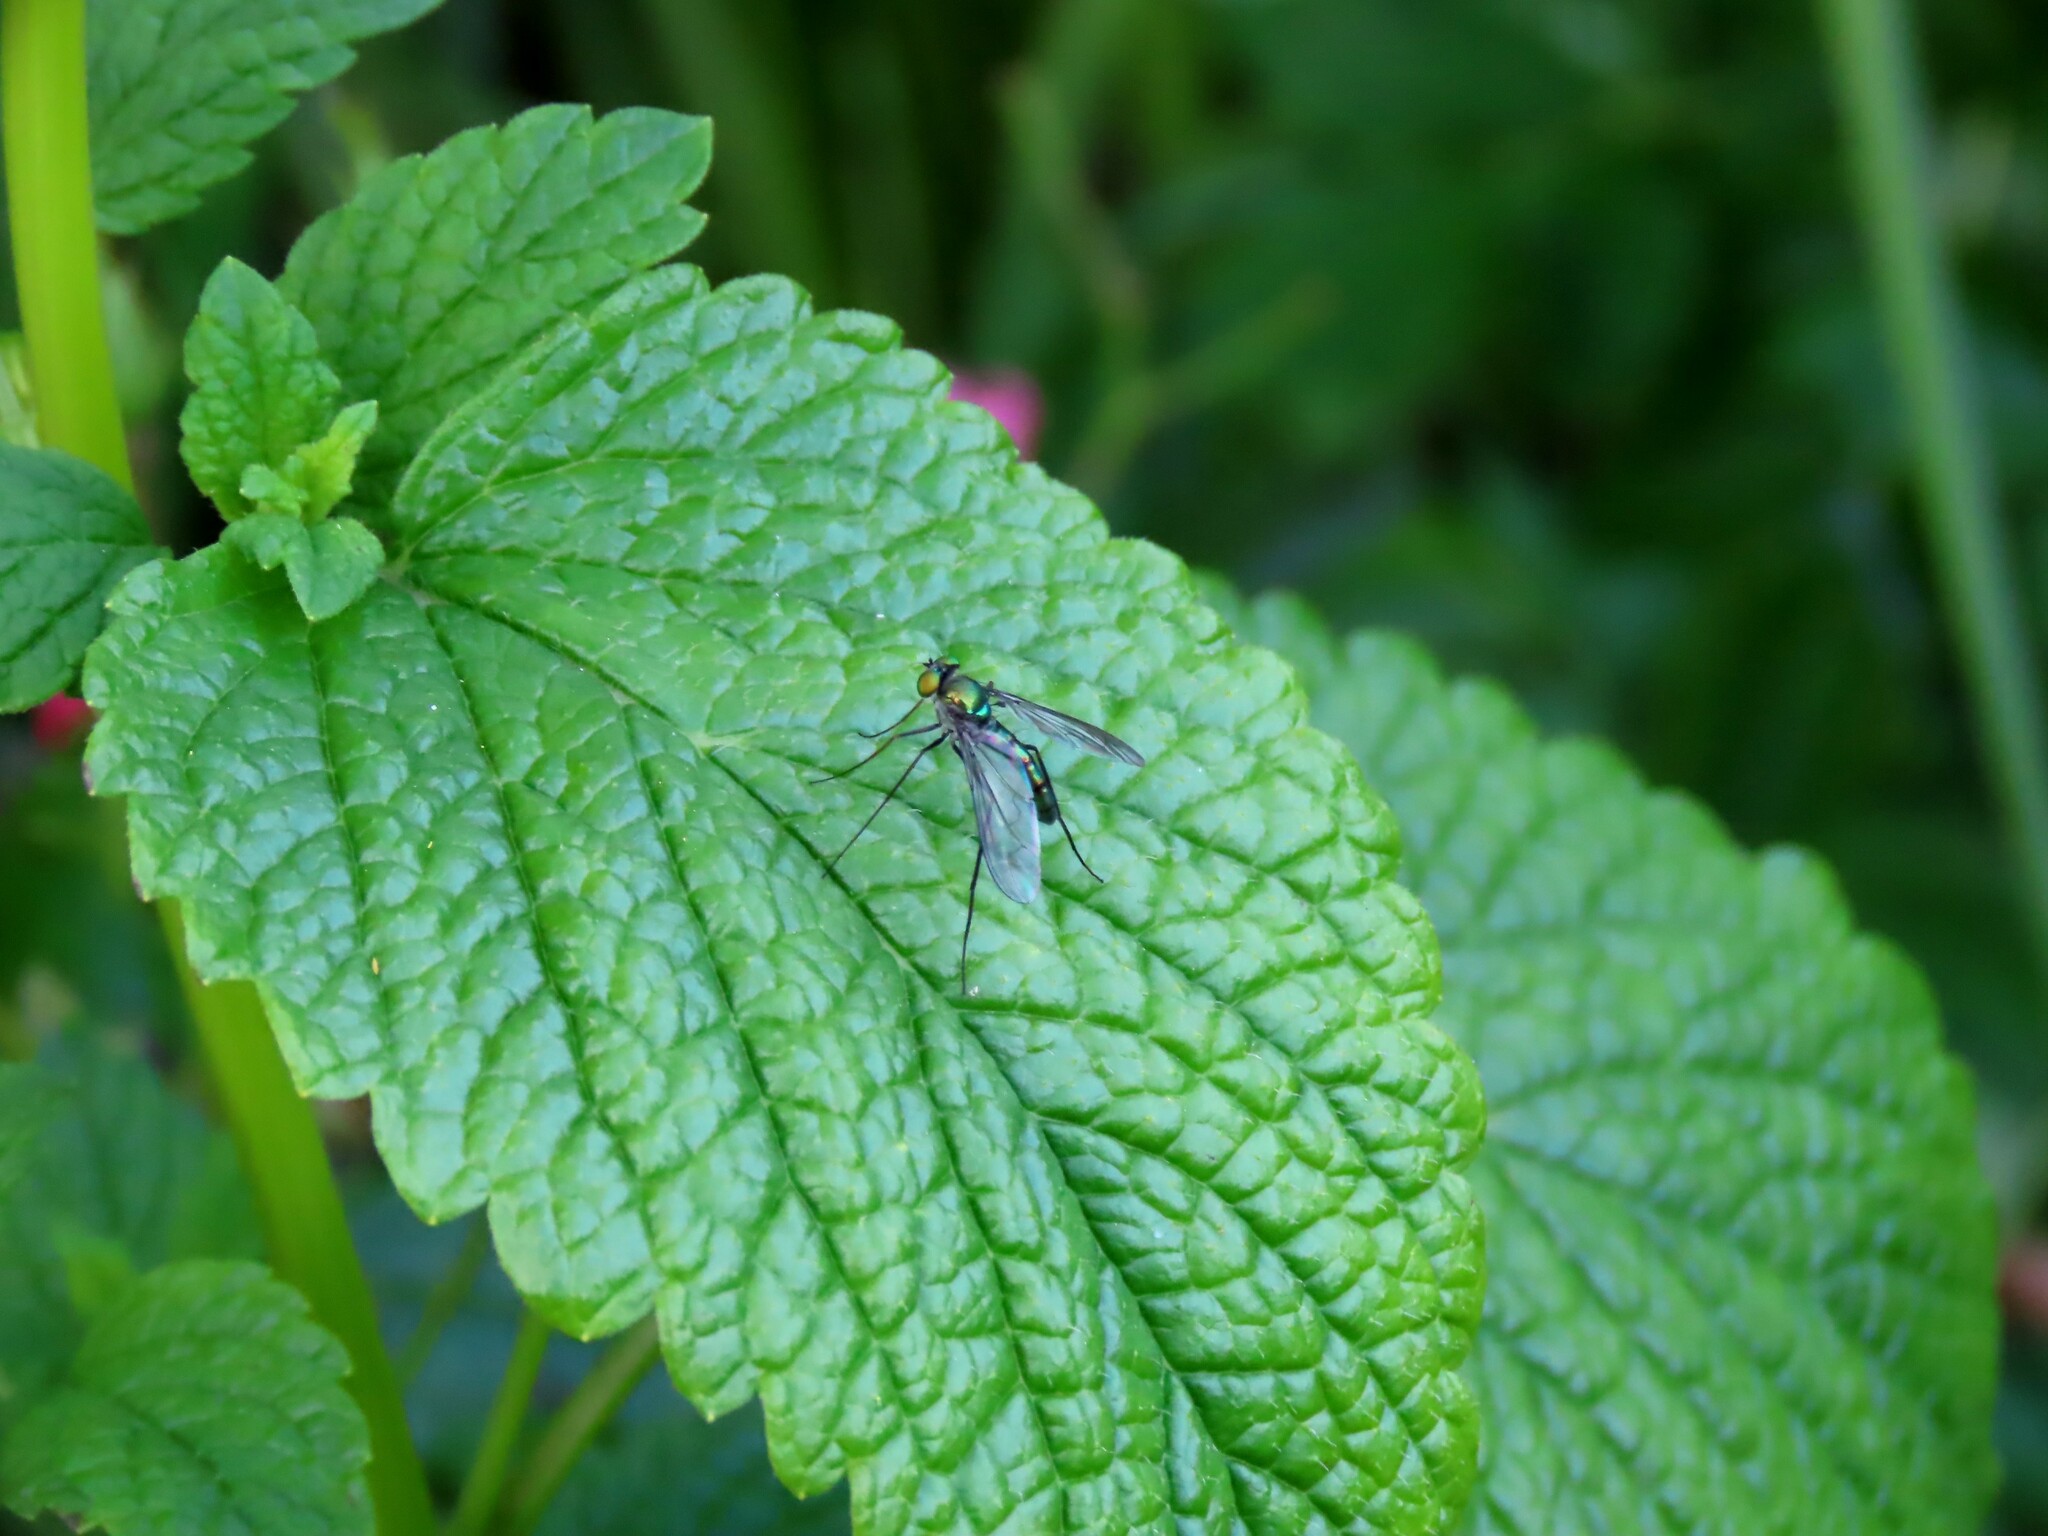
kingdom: Animalia
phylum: Arthropoda
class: Insecta
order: Diptera
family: Dolichopodidae
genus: Heteropsilopus
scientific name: Heteropsilopus cingulipes
